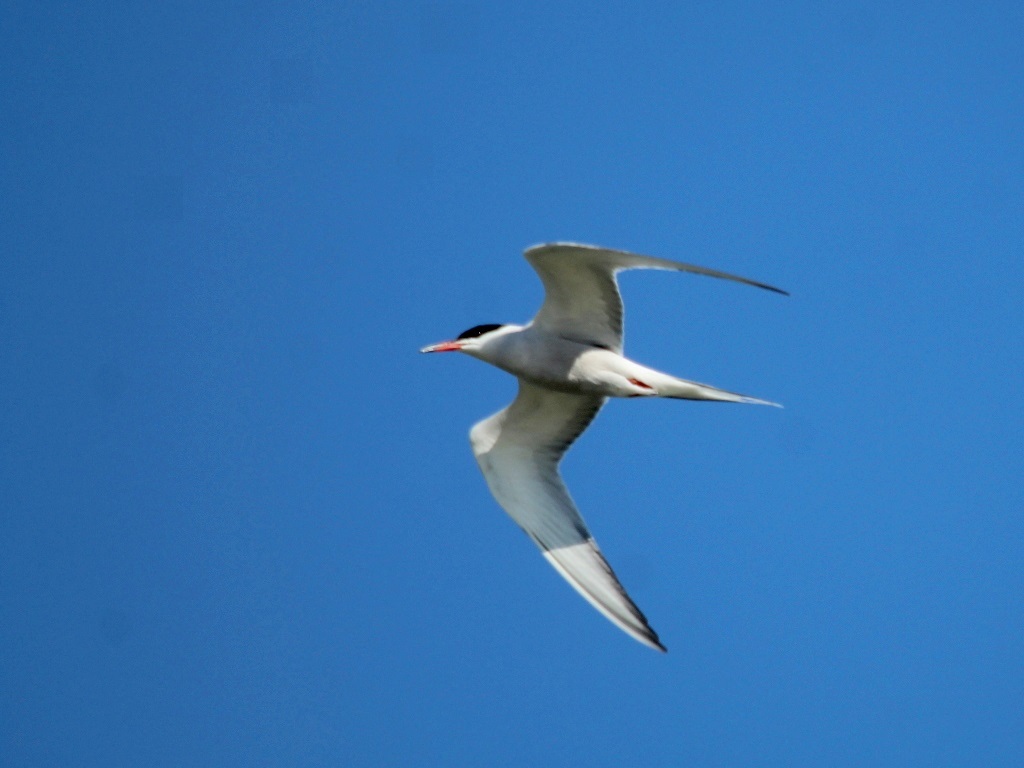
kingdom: Animalia
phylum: Chordata
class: Aves
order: Charadriiformes
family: Laridae
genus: Sterna
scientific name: Sterna hirundo
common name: Common tern
